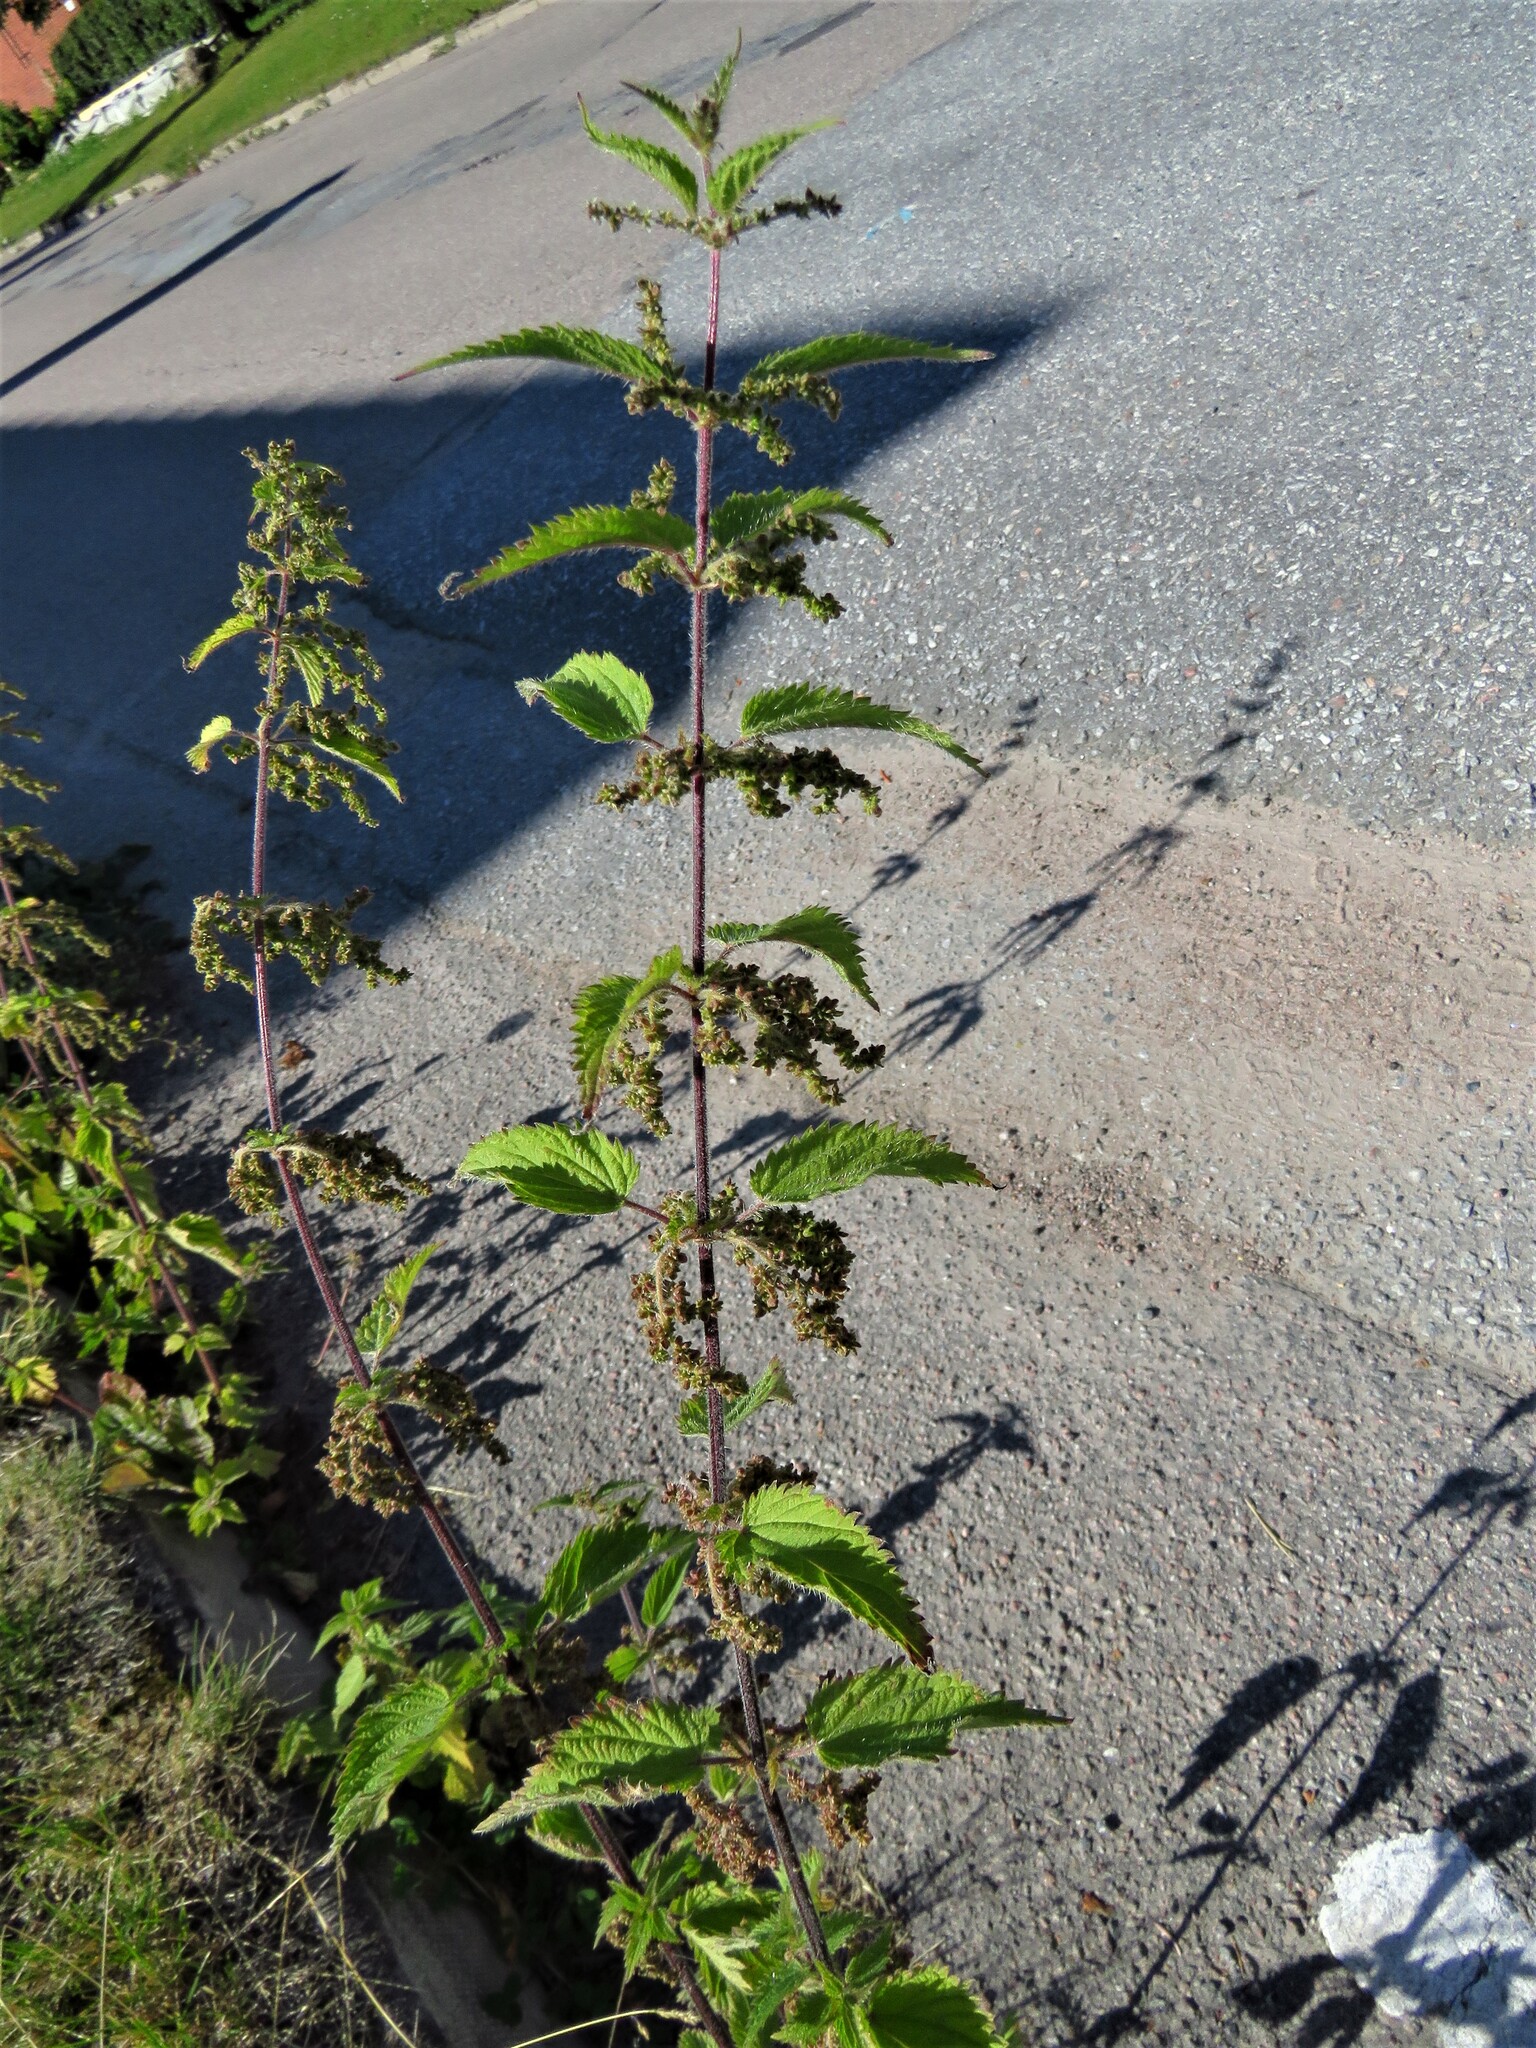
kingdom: Plantae
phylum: Tracheophyta
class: Magnoliopsida
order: Rosales
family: Urticaceae
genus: Urtica
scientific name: Urtica dioica
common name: Common nettle
